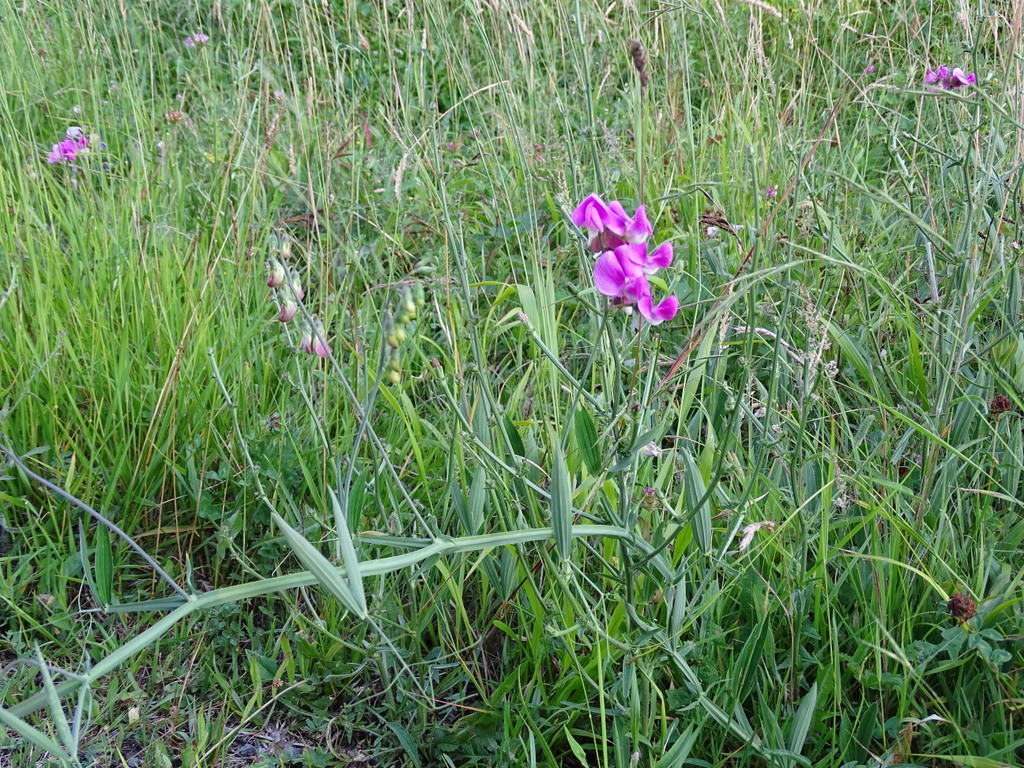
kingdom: Plantae
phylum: Tracheophyta
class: Magnoliopsida
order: Fabales
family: Fabaceae
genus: Lathyrus
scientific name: Lathyrus sylvestris
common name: Flat pea
